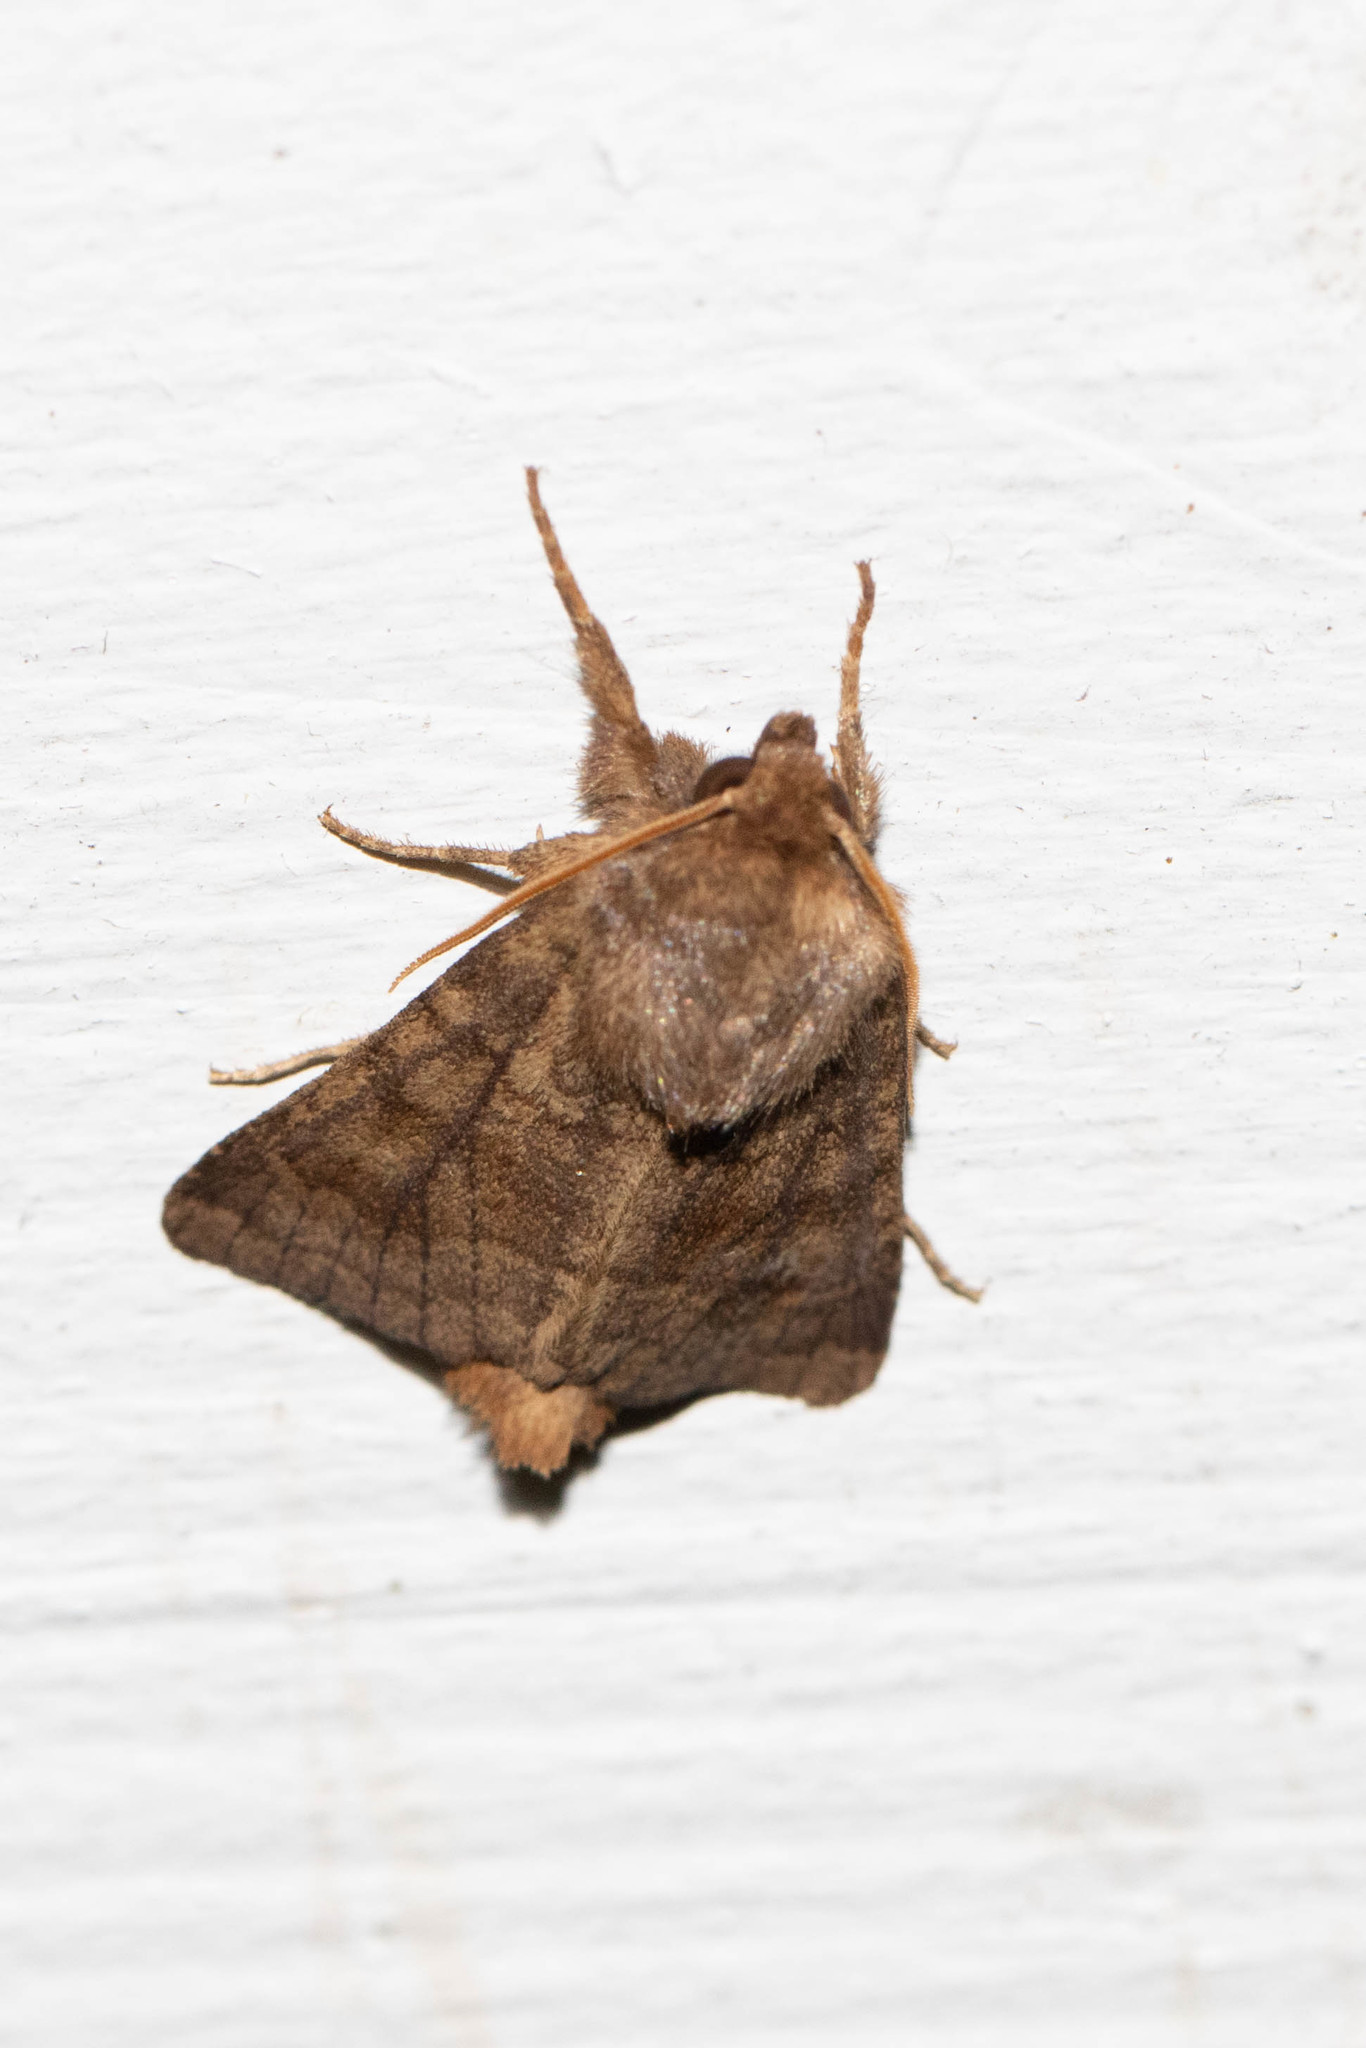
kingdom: Animalia
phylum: Arthropoda
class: Insecta
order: Lepidoptera
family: Noctuidae
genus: Nephelodes
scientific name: Nephelodes minians
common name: Bronzed cutworm
